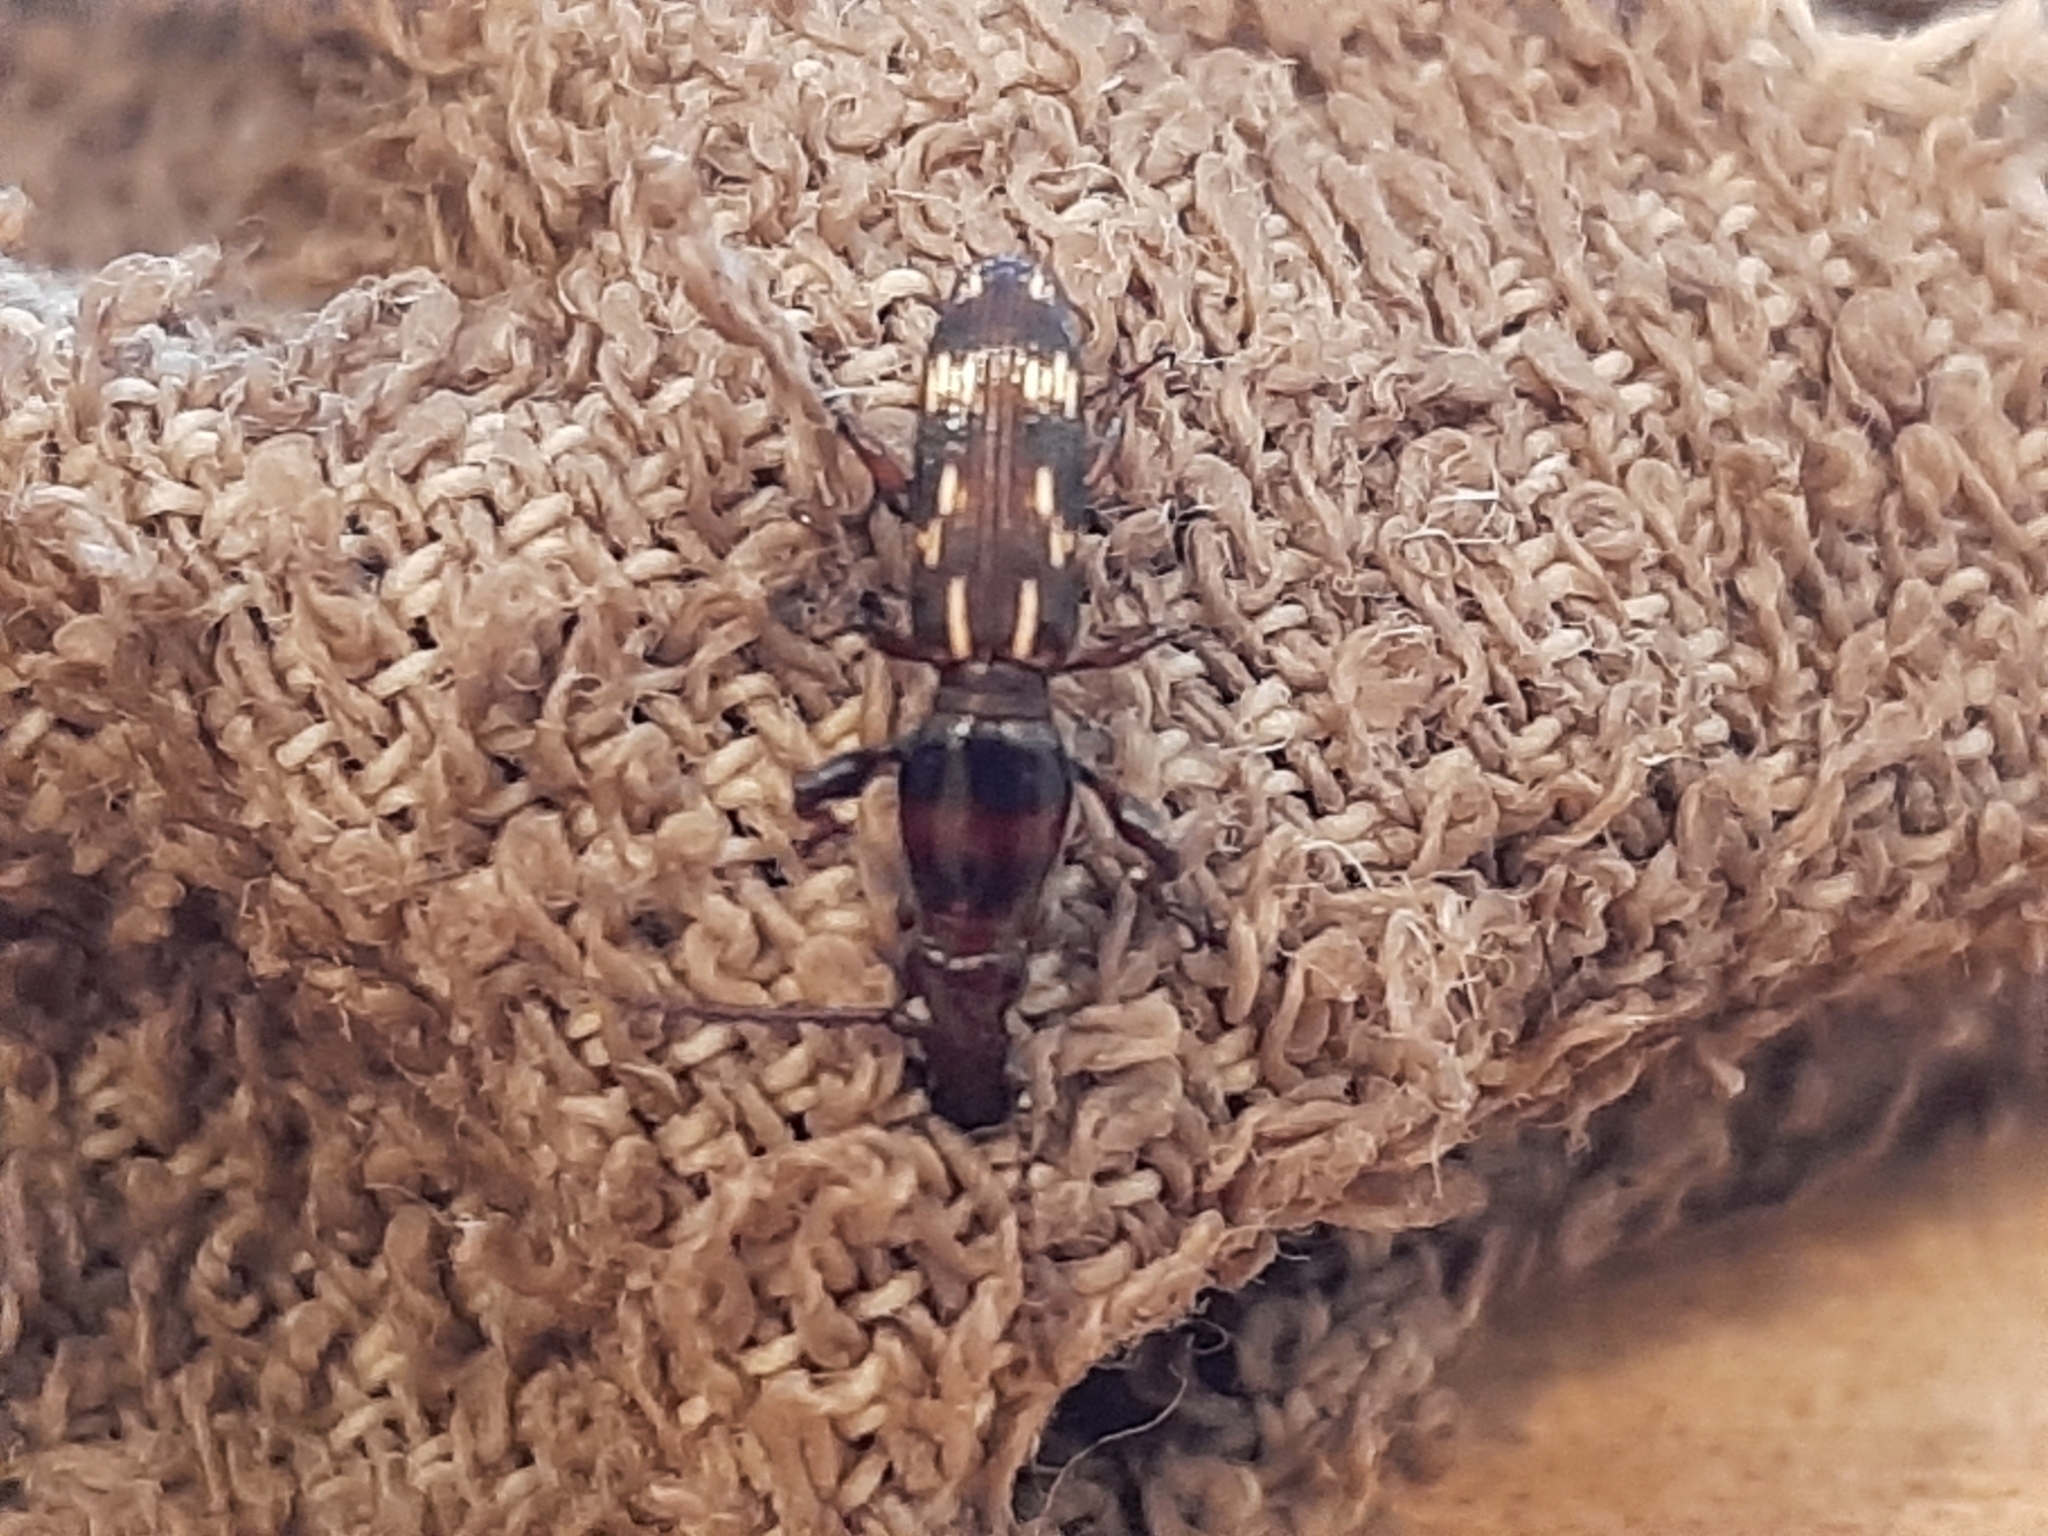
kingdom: Animalia
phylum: Arthropoda
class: Insecta
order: Coleoptera
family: Brentidae
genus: Arrenodes
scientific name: Arrenodes minutus
